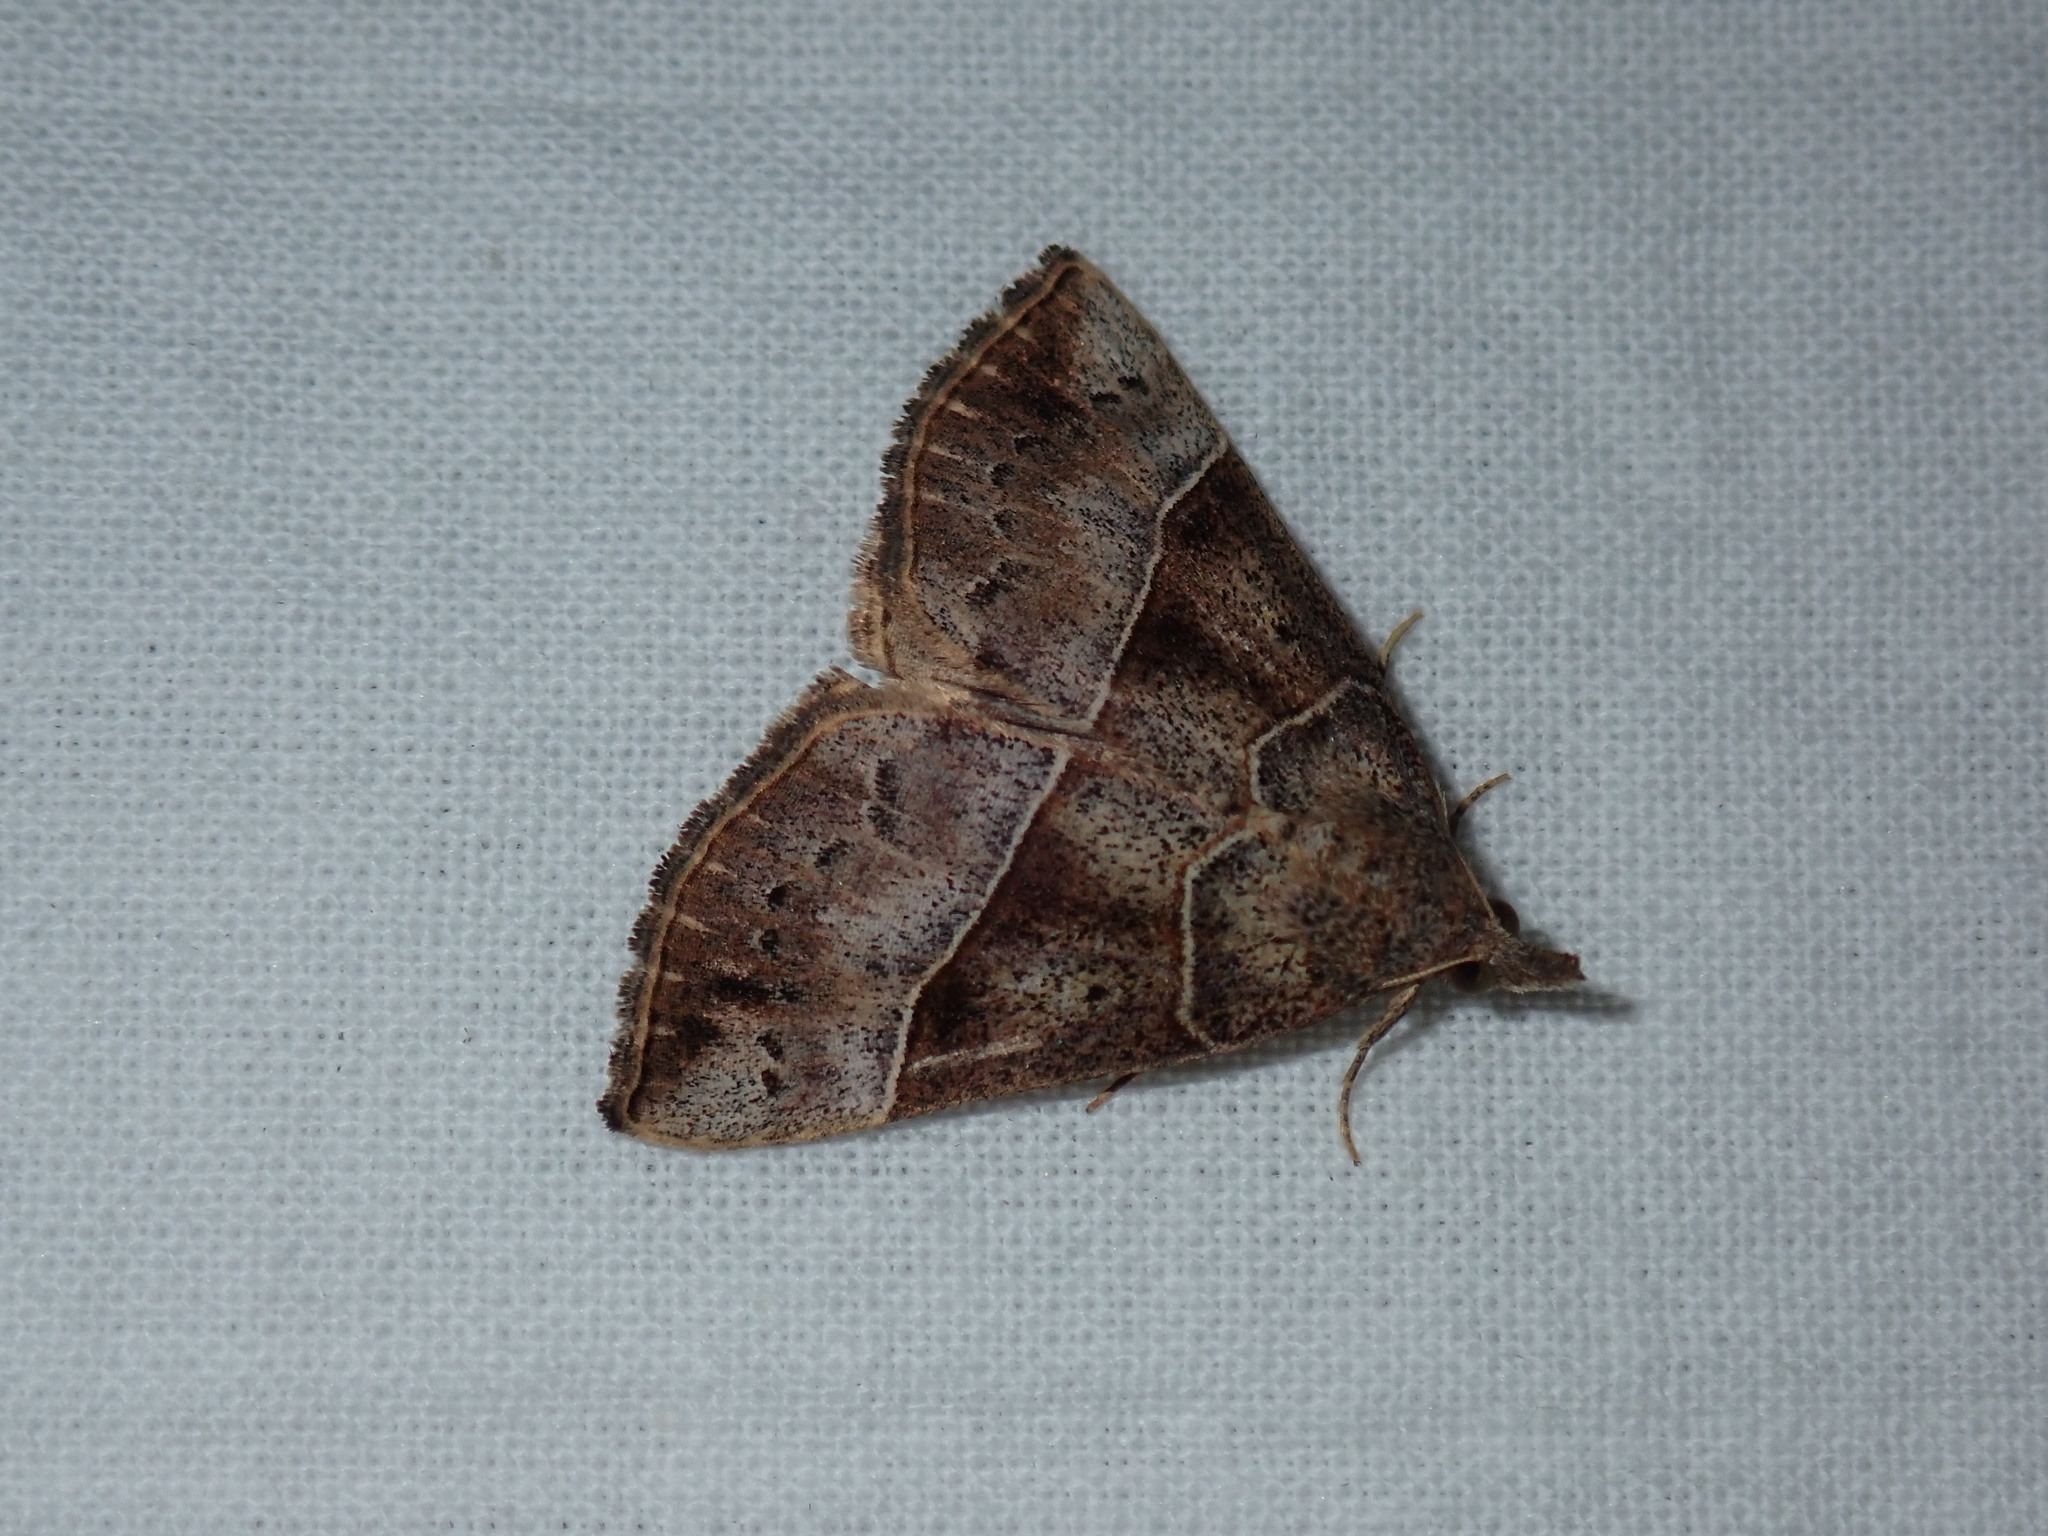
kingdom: Animalia
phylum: Arthropoda
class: Insecta
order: Lepidoptera
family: Erebidae
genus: Hypena
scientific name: Hypena deceptalis
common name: Deceptive snout
